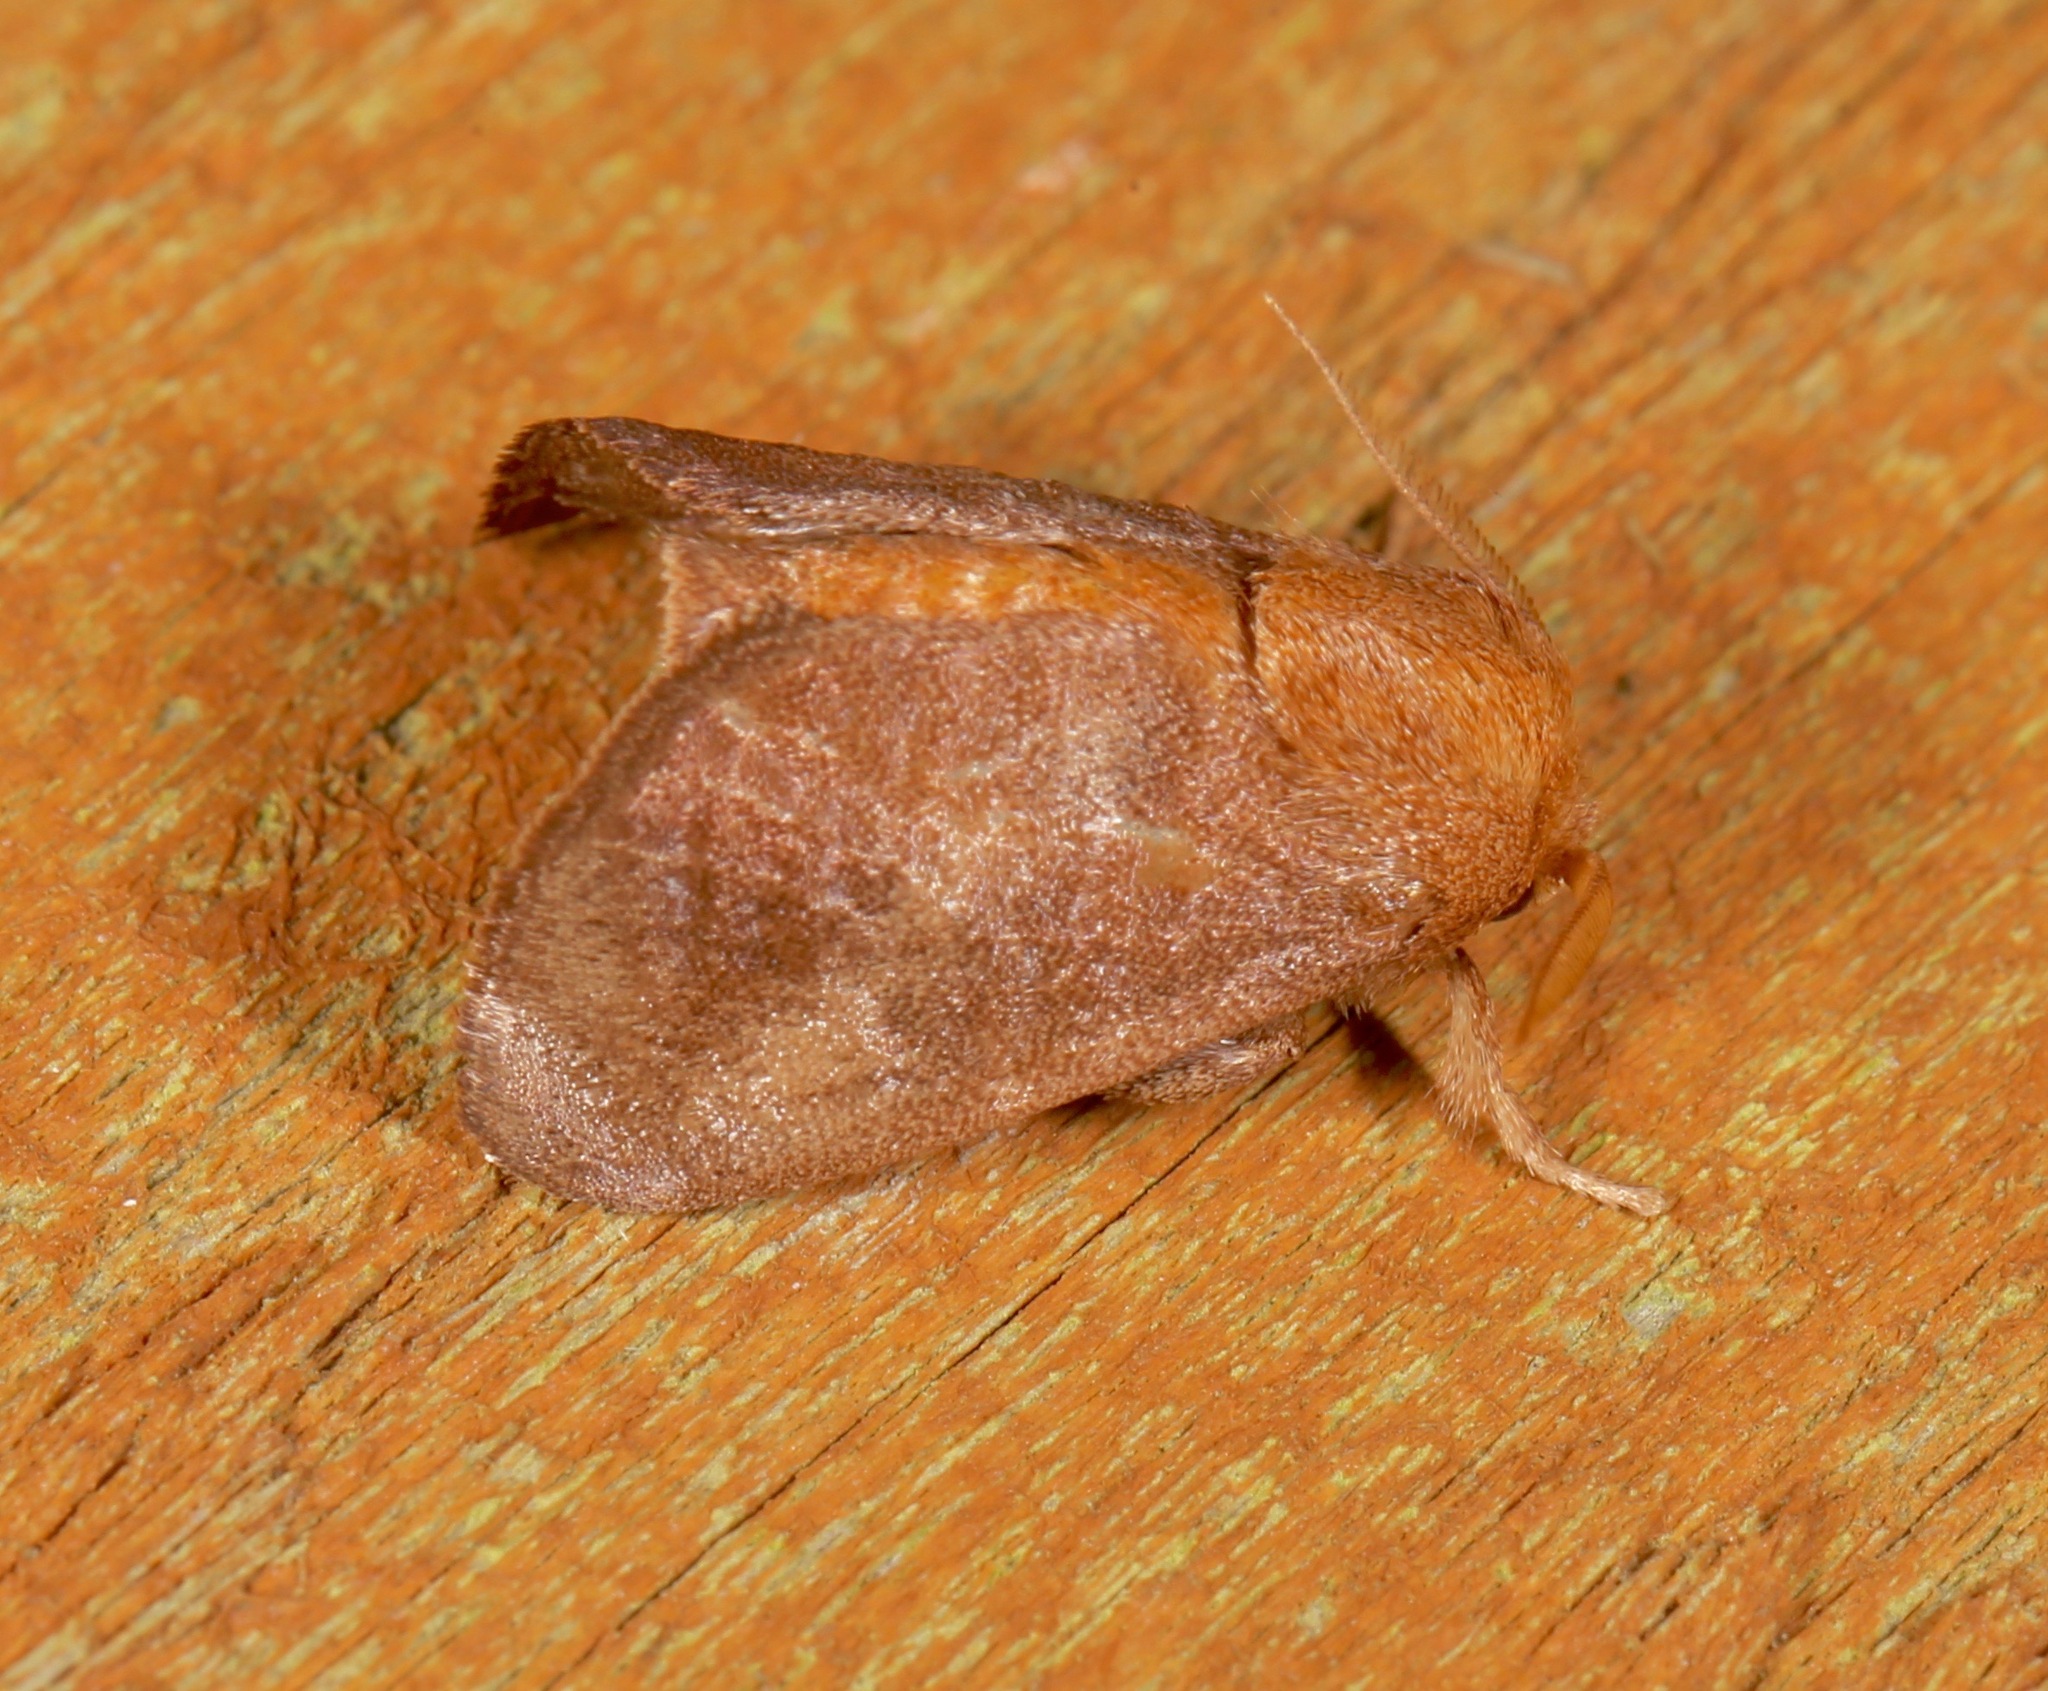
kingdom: Animalia
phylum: Arthropoda
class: Insecta
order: Lepidoptera
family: Limacodidae
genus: Isa
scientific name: Isa textula
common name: Crowned slug moth
